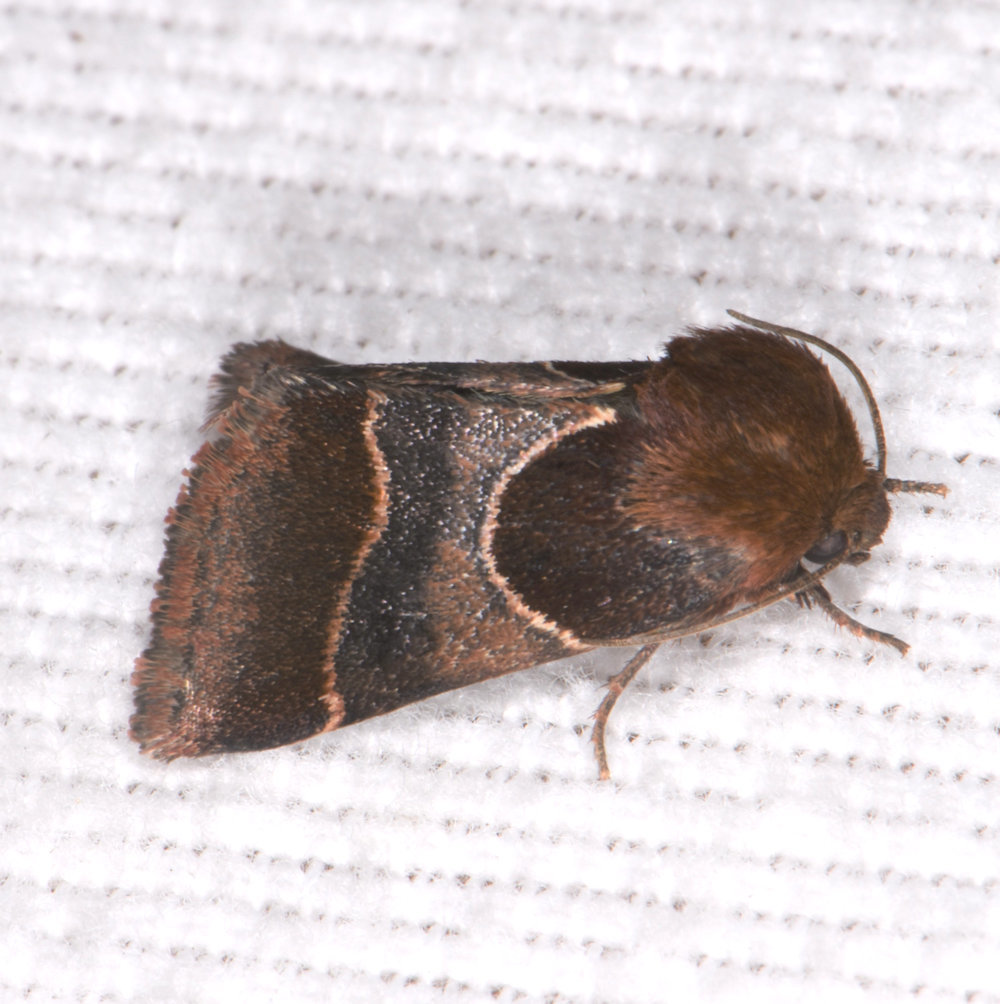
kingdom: Animalia
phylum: Arthropoda
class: Insecta
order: Lepidoptera
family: Noctuidae
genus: Schinia
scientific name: Schinia arcigera
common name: Arcigera flower moth
